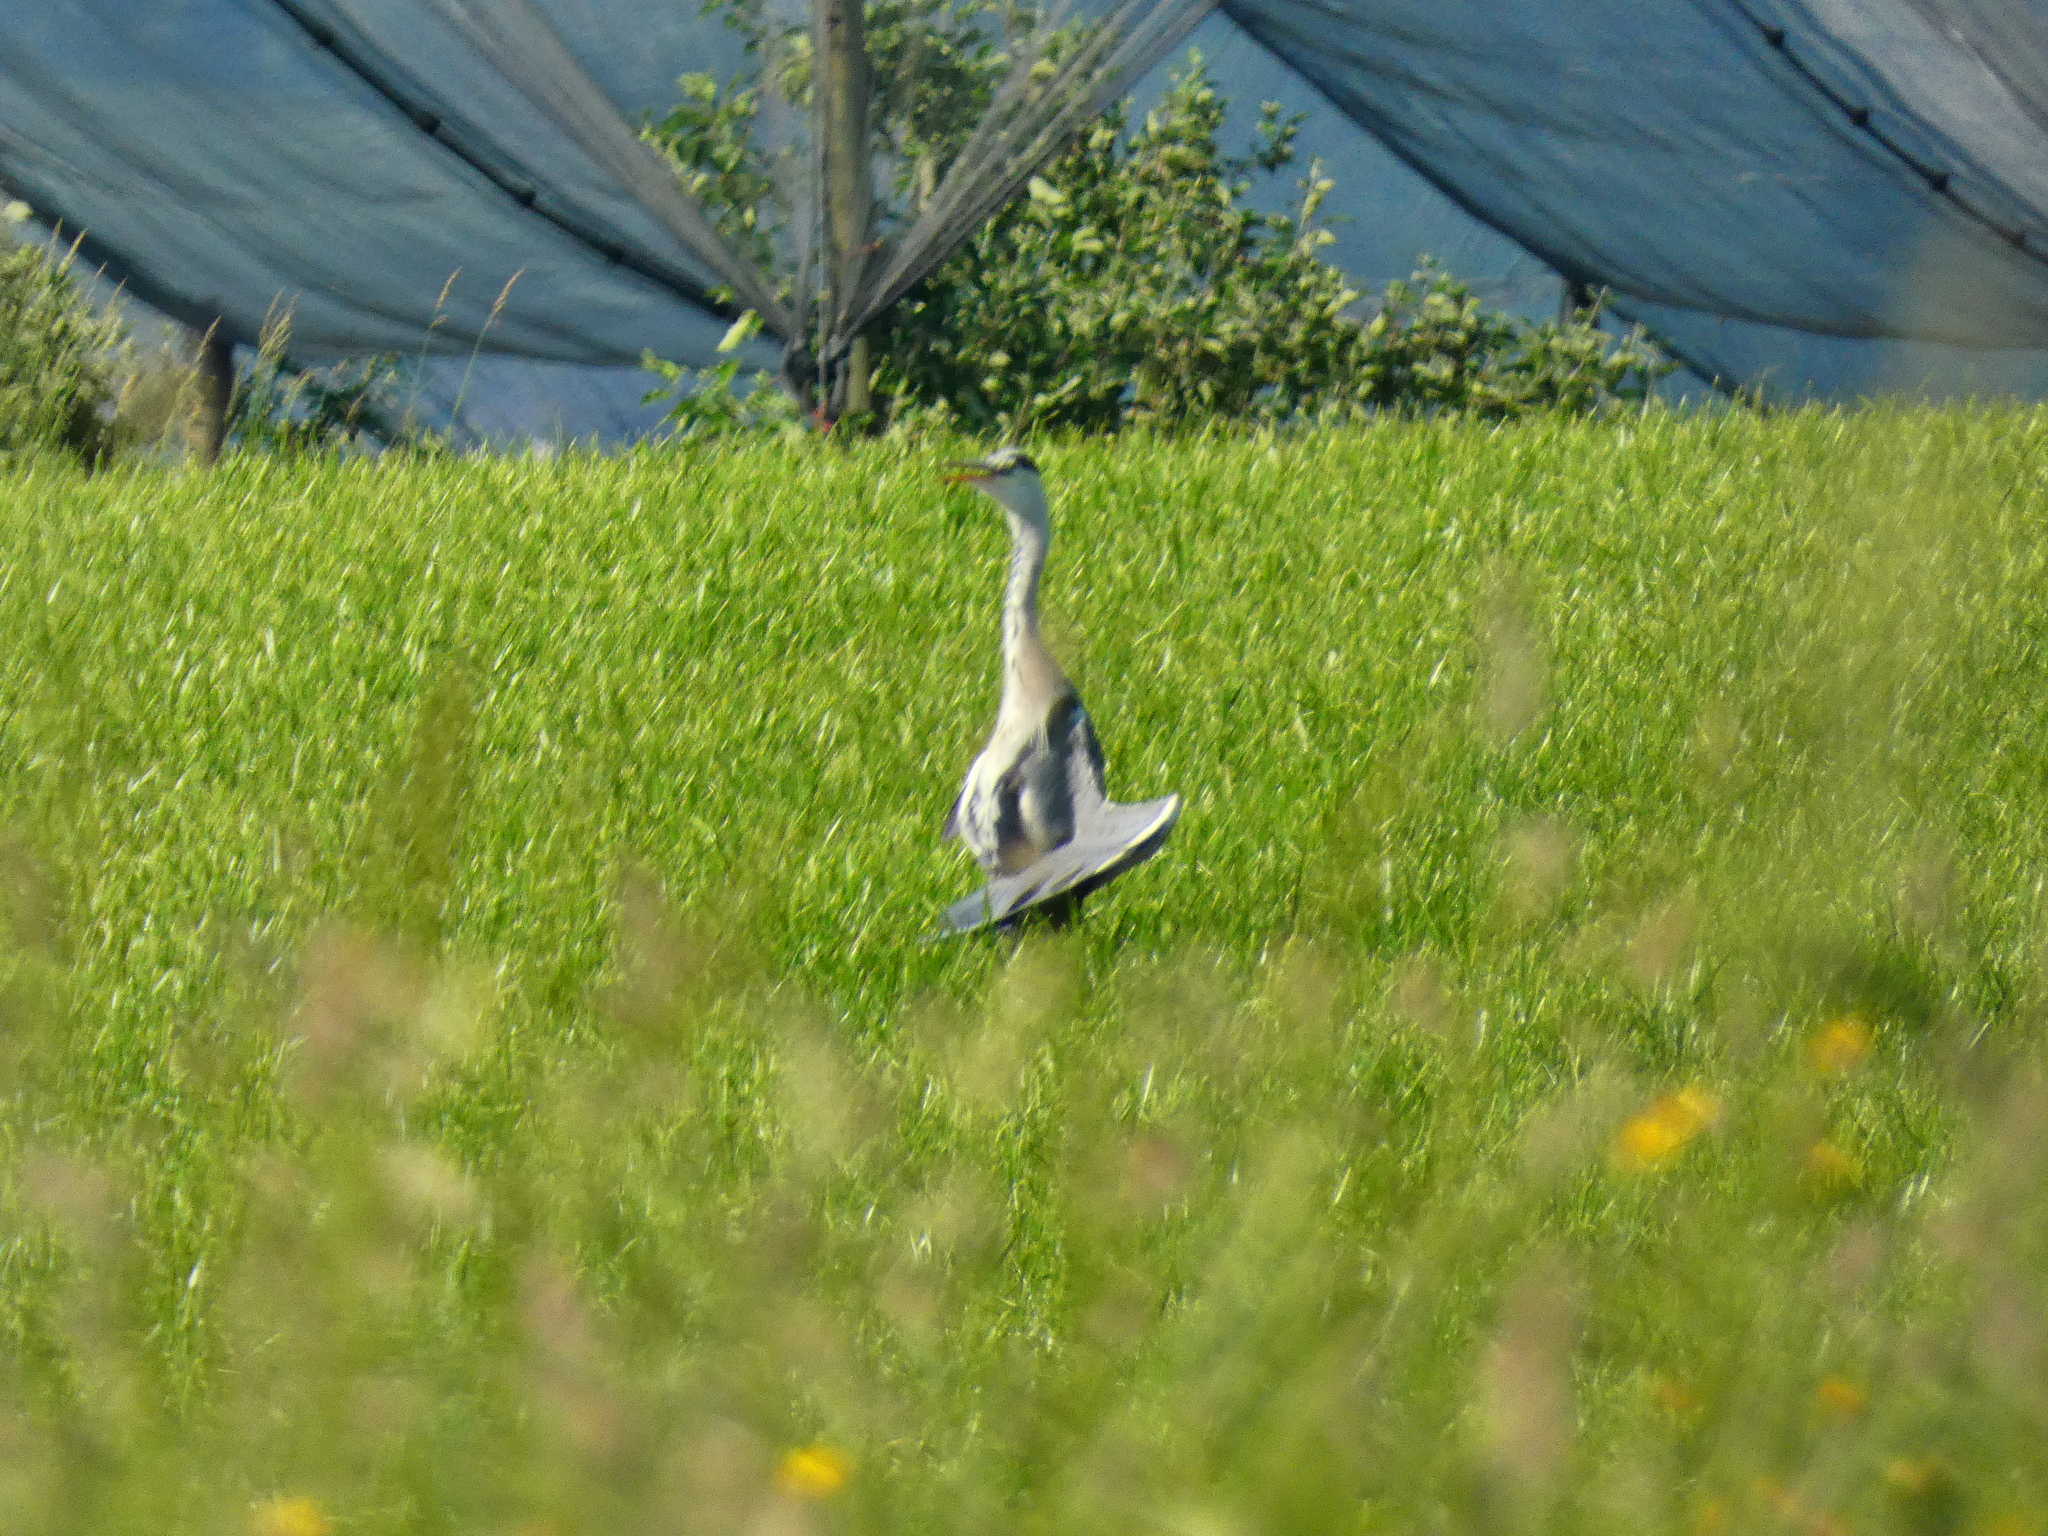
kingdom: Animalia
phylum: Chordata
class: Aves
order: Pelecaniformes
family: Ardeidae
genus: Ardea
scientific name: Ardea cinerea
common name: Grey heron
